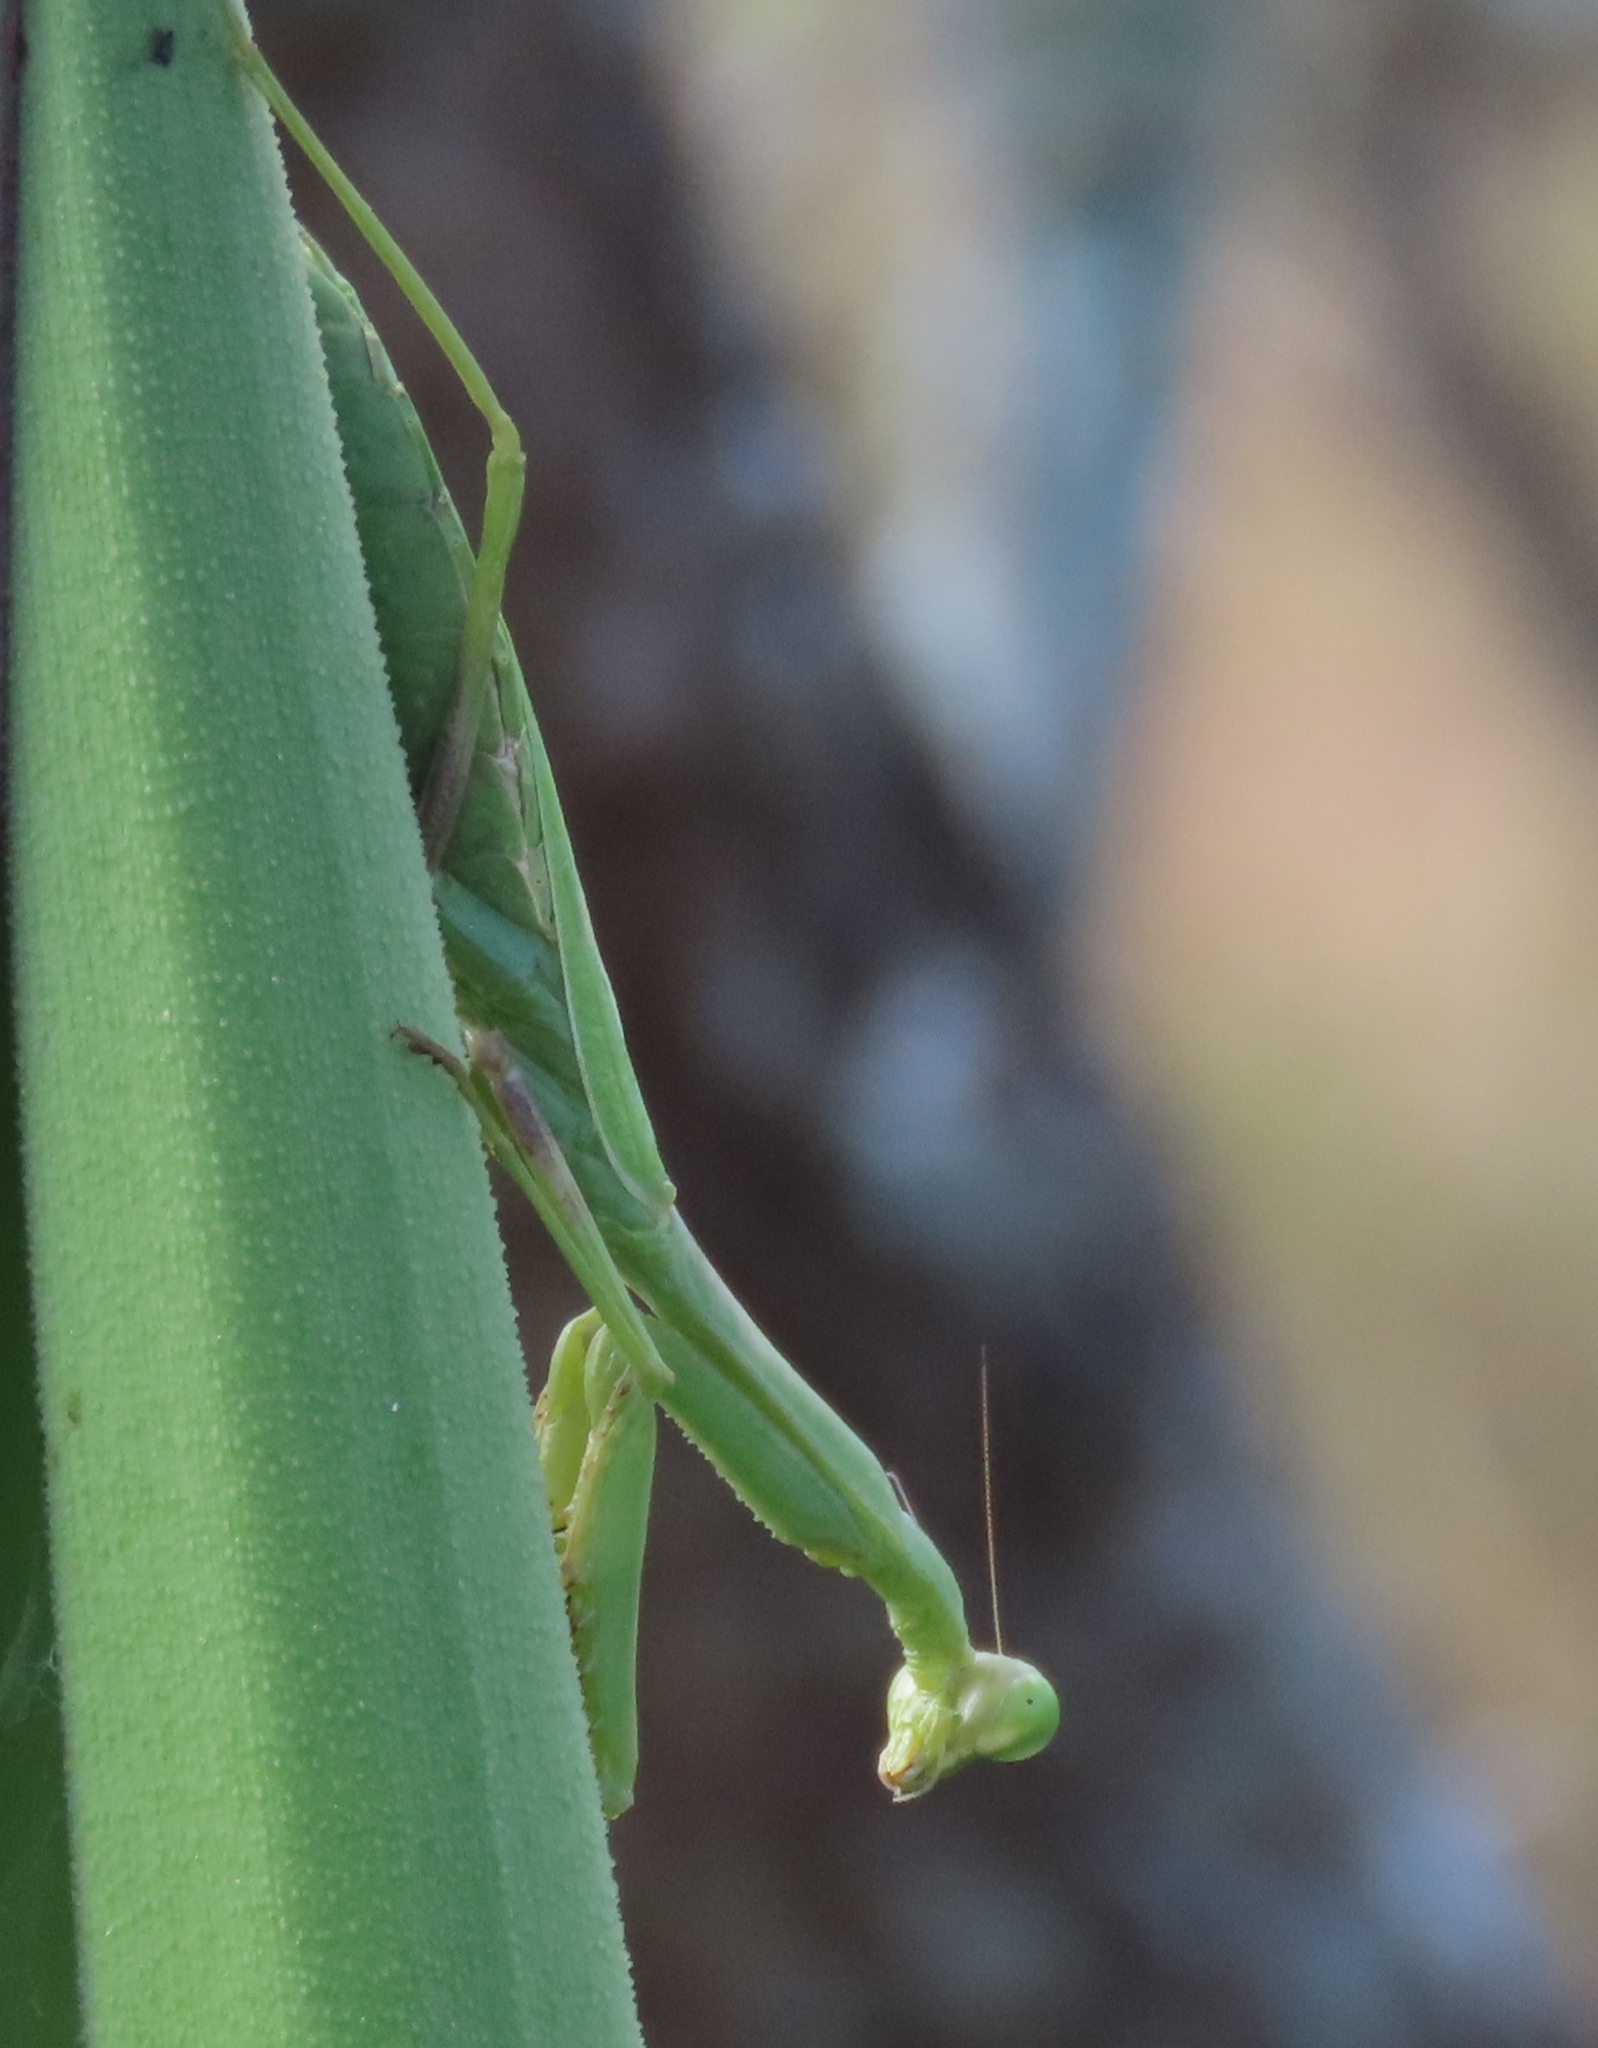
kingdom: Animalia
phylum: Arthropoda
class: Insecta
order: Mantodea
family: Mantidae
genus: Stagmomantis
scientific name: Stagmomantis carolina
